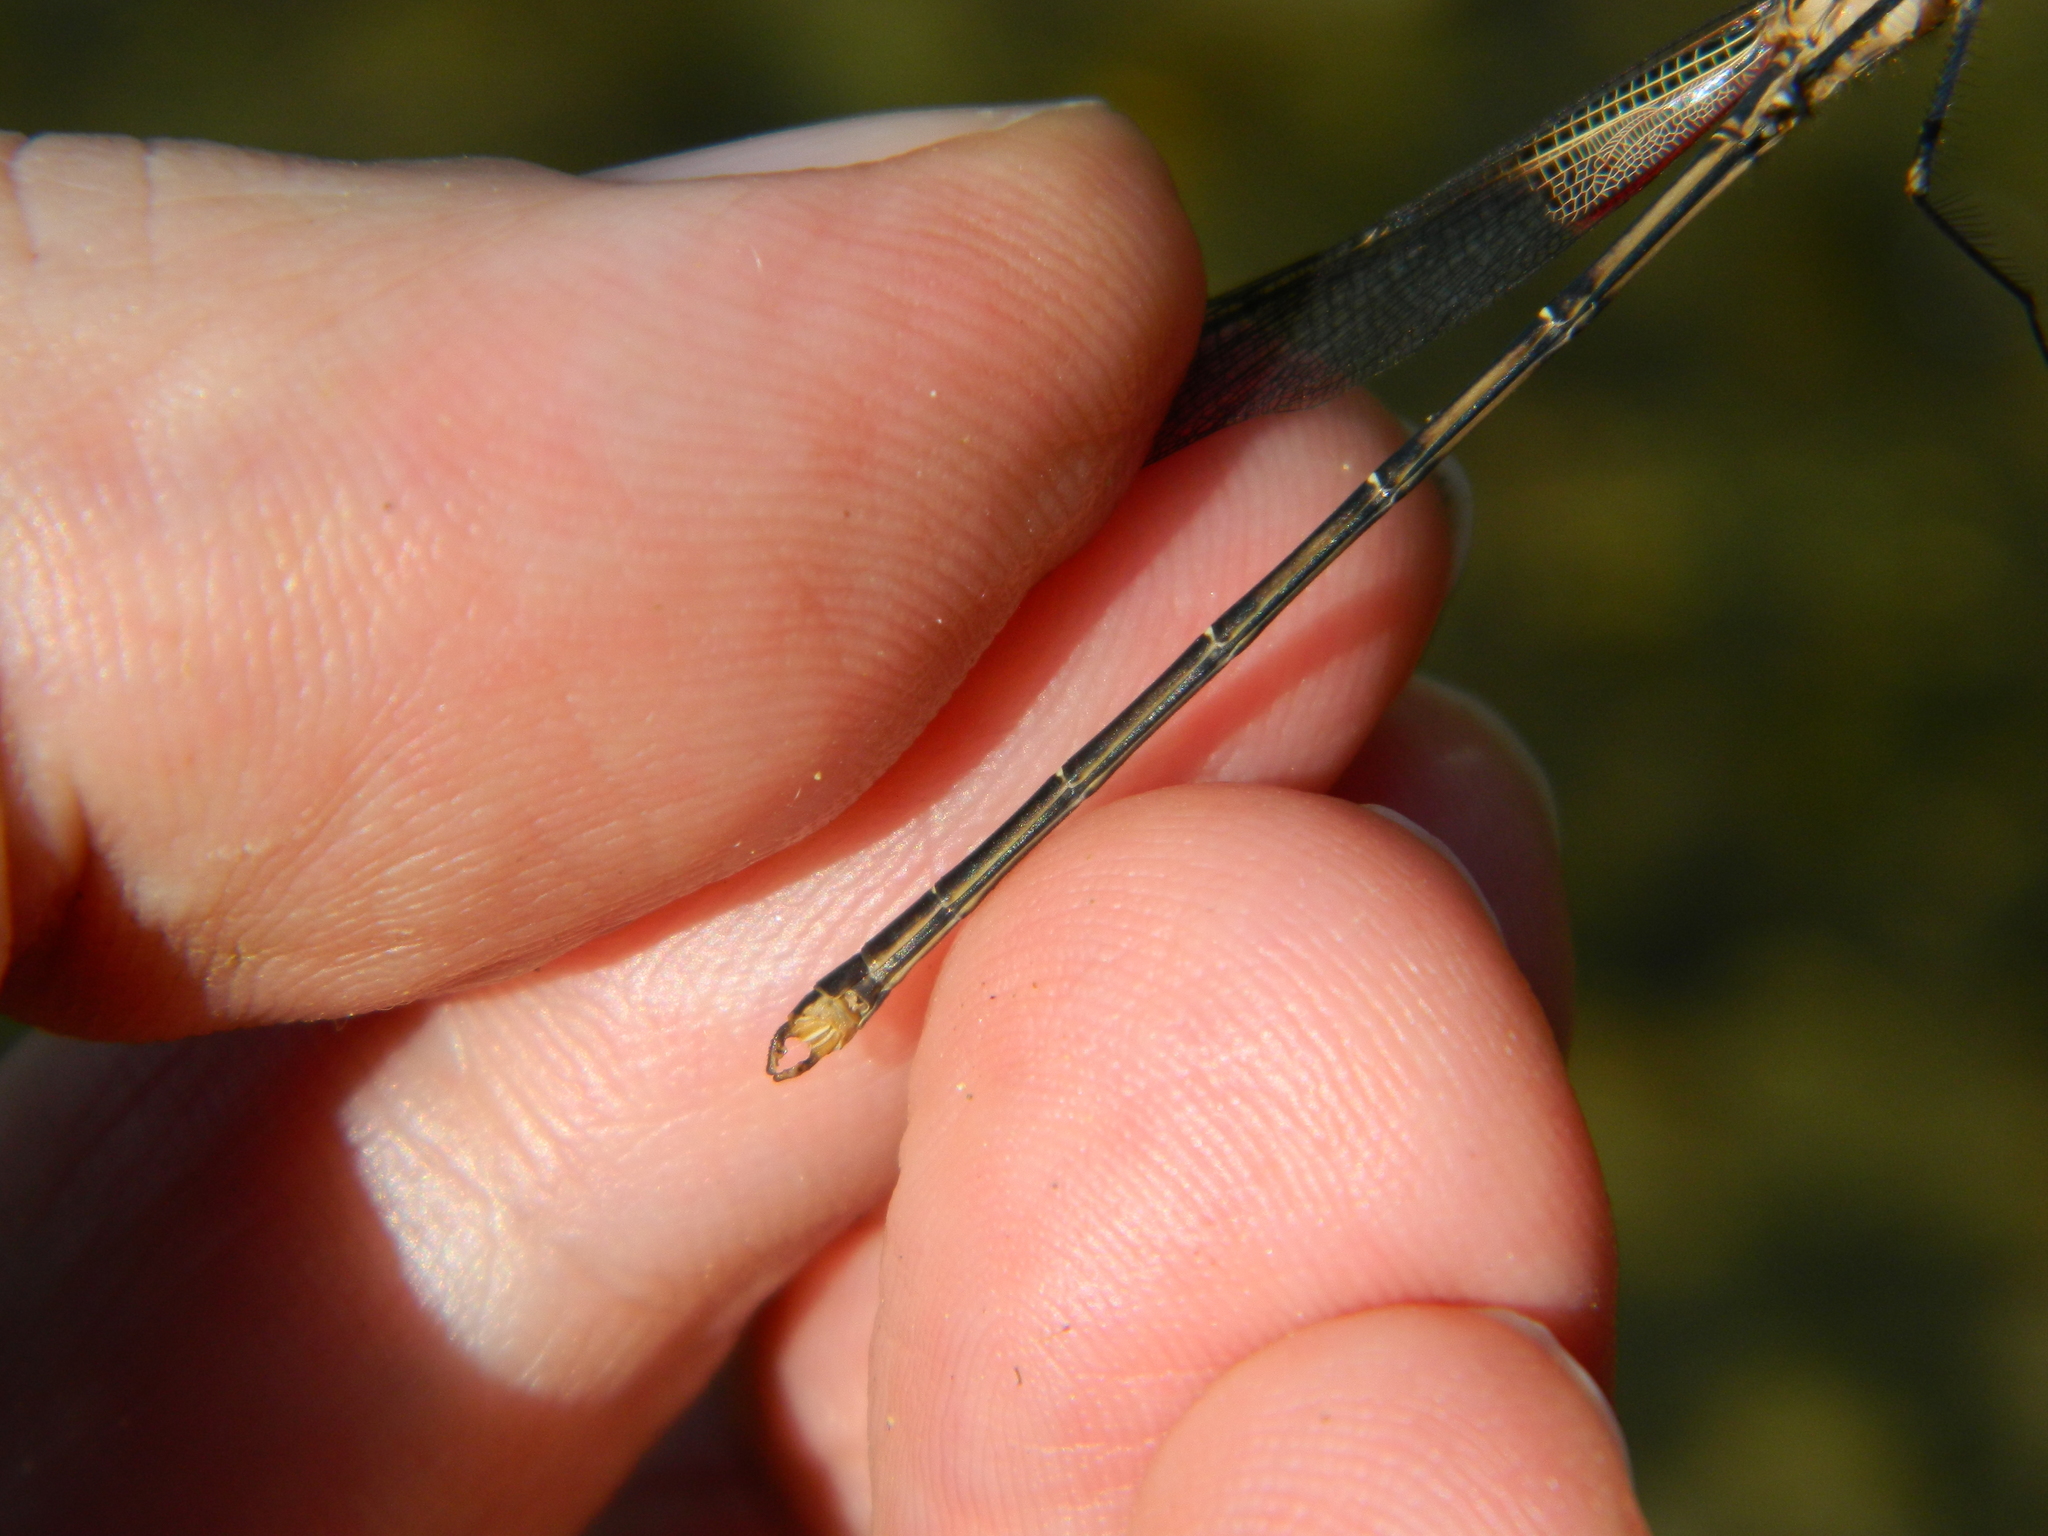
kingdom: Animalia
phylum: Arthropoda
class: Insecta
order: Odonata
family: Calopterygidae
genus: Hetaerina
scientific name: Hetaerina americana
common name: American rubyspot
